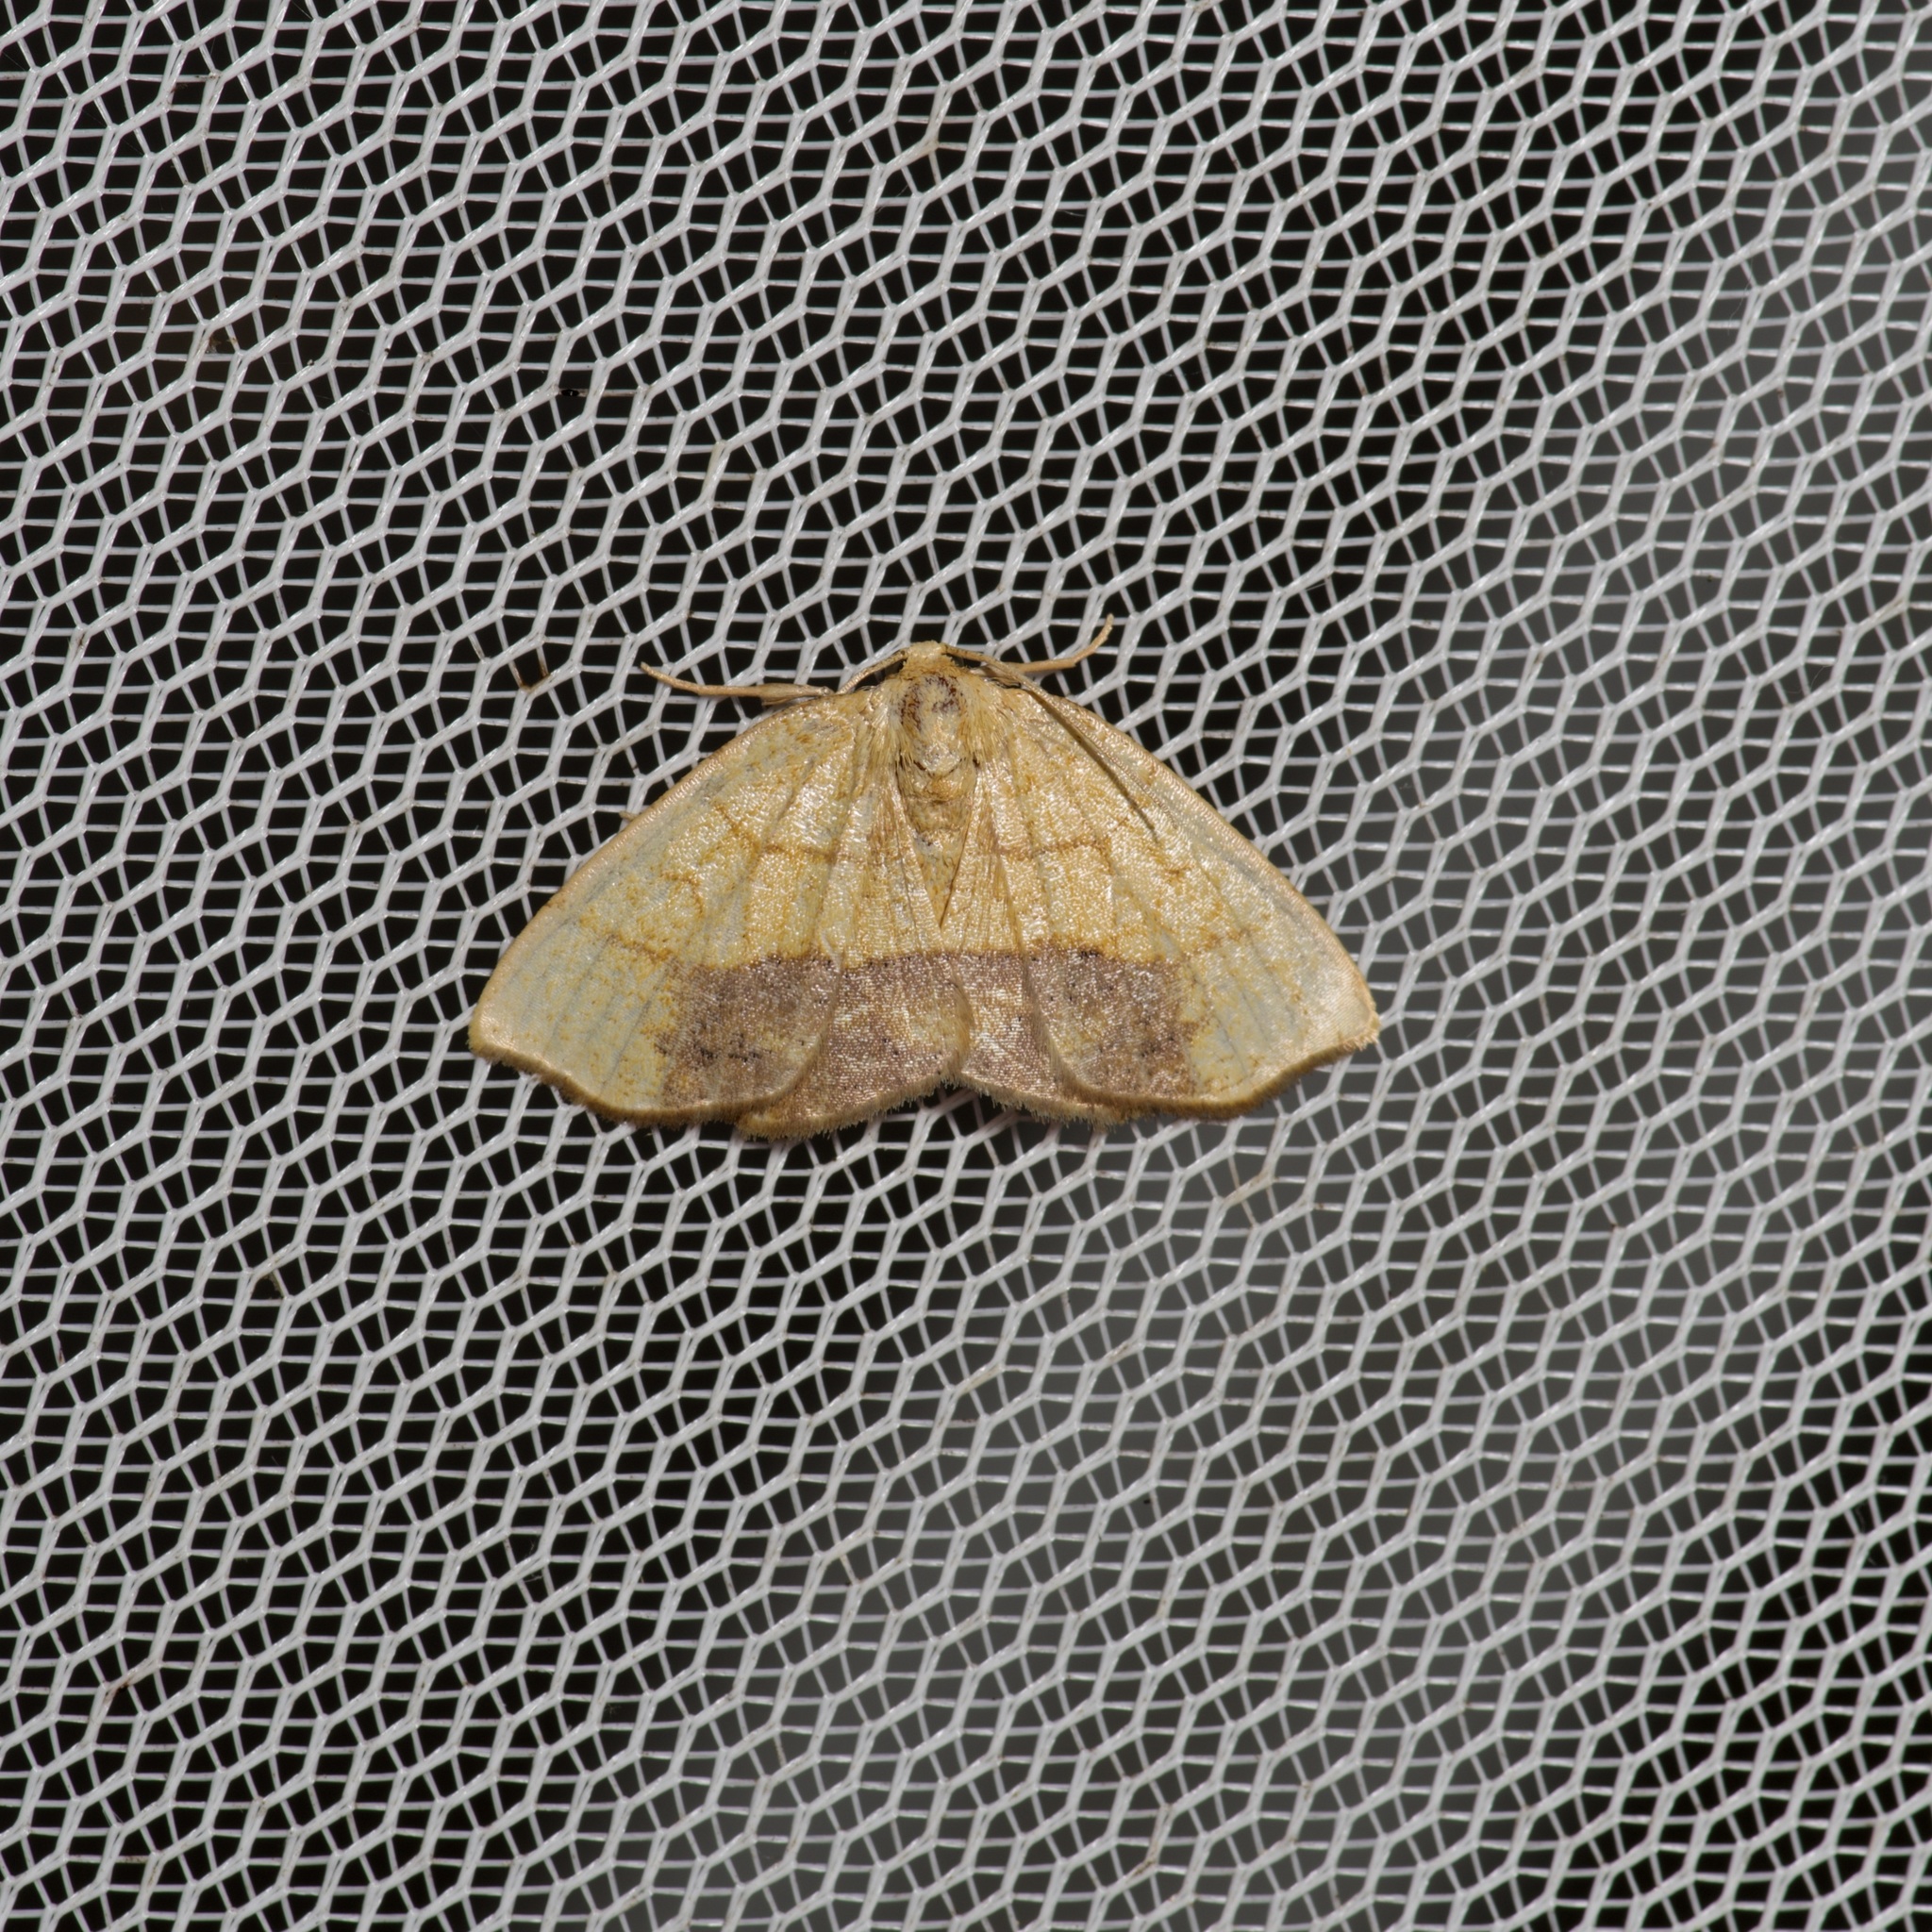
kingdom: Animalia
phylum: Arthropoda
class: Insecta
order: Lepidoptera
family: Geometridae
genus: Nematocampa
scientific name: Nematocampa resistaria
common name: Horned spanworm moth
